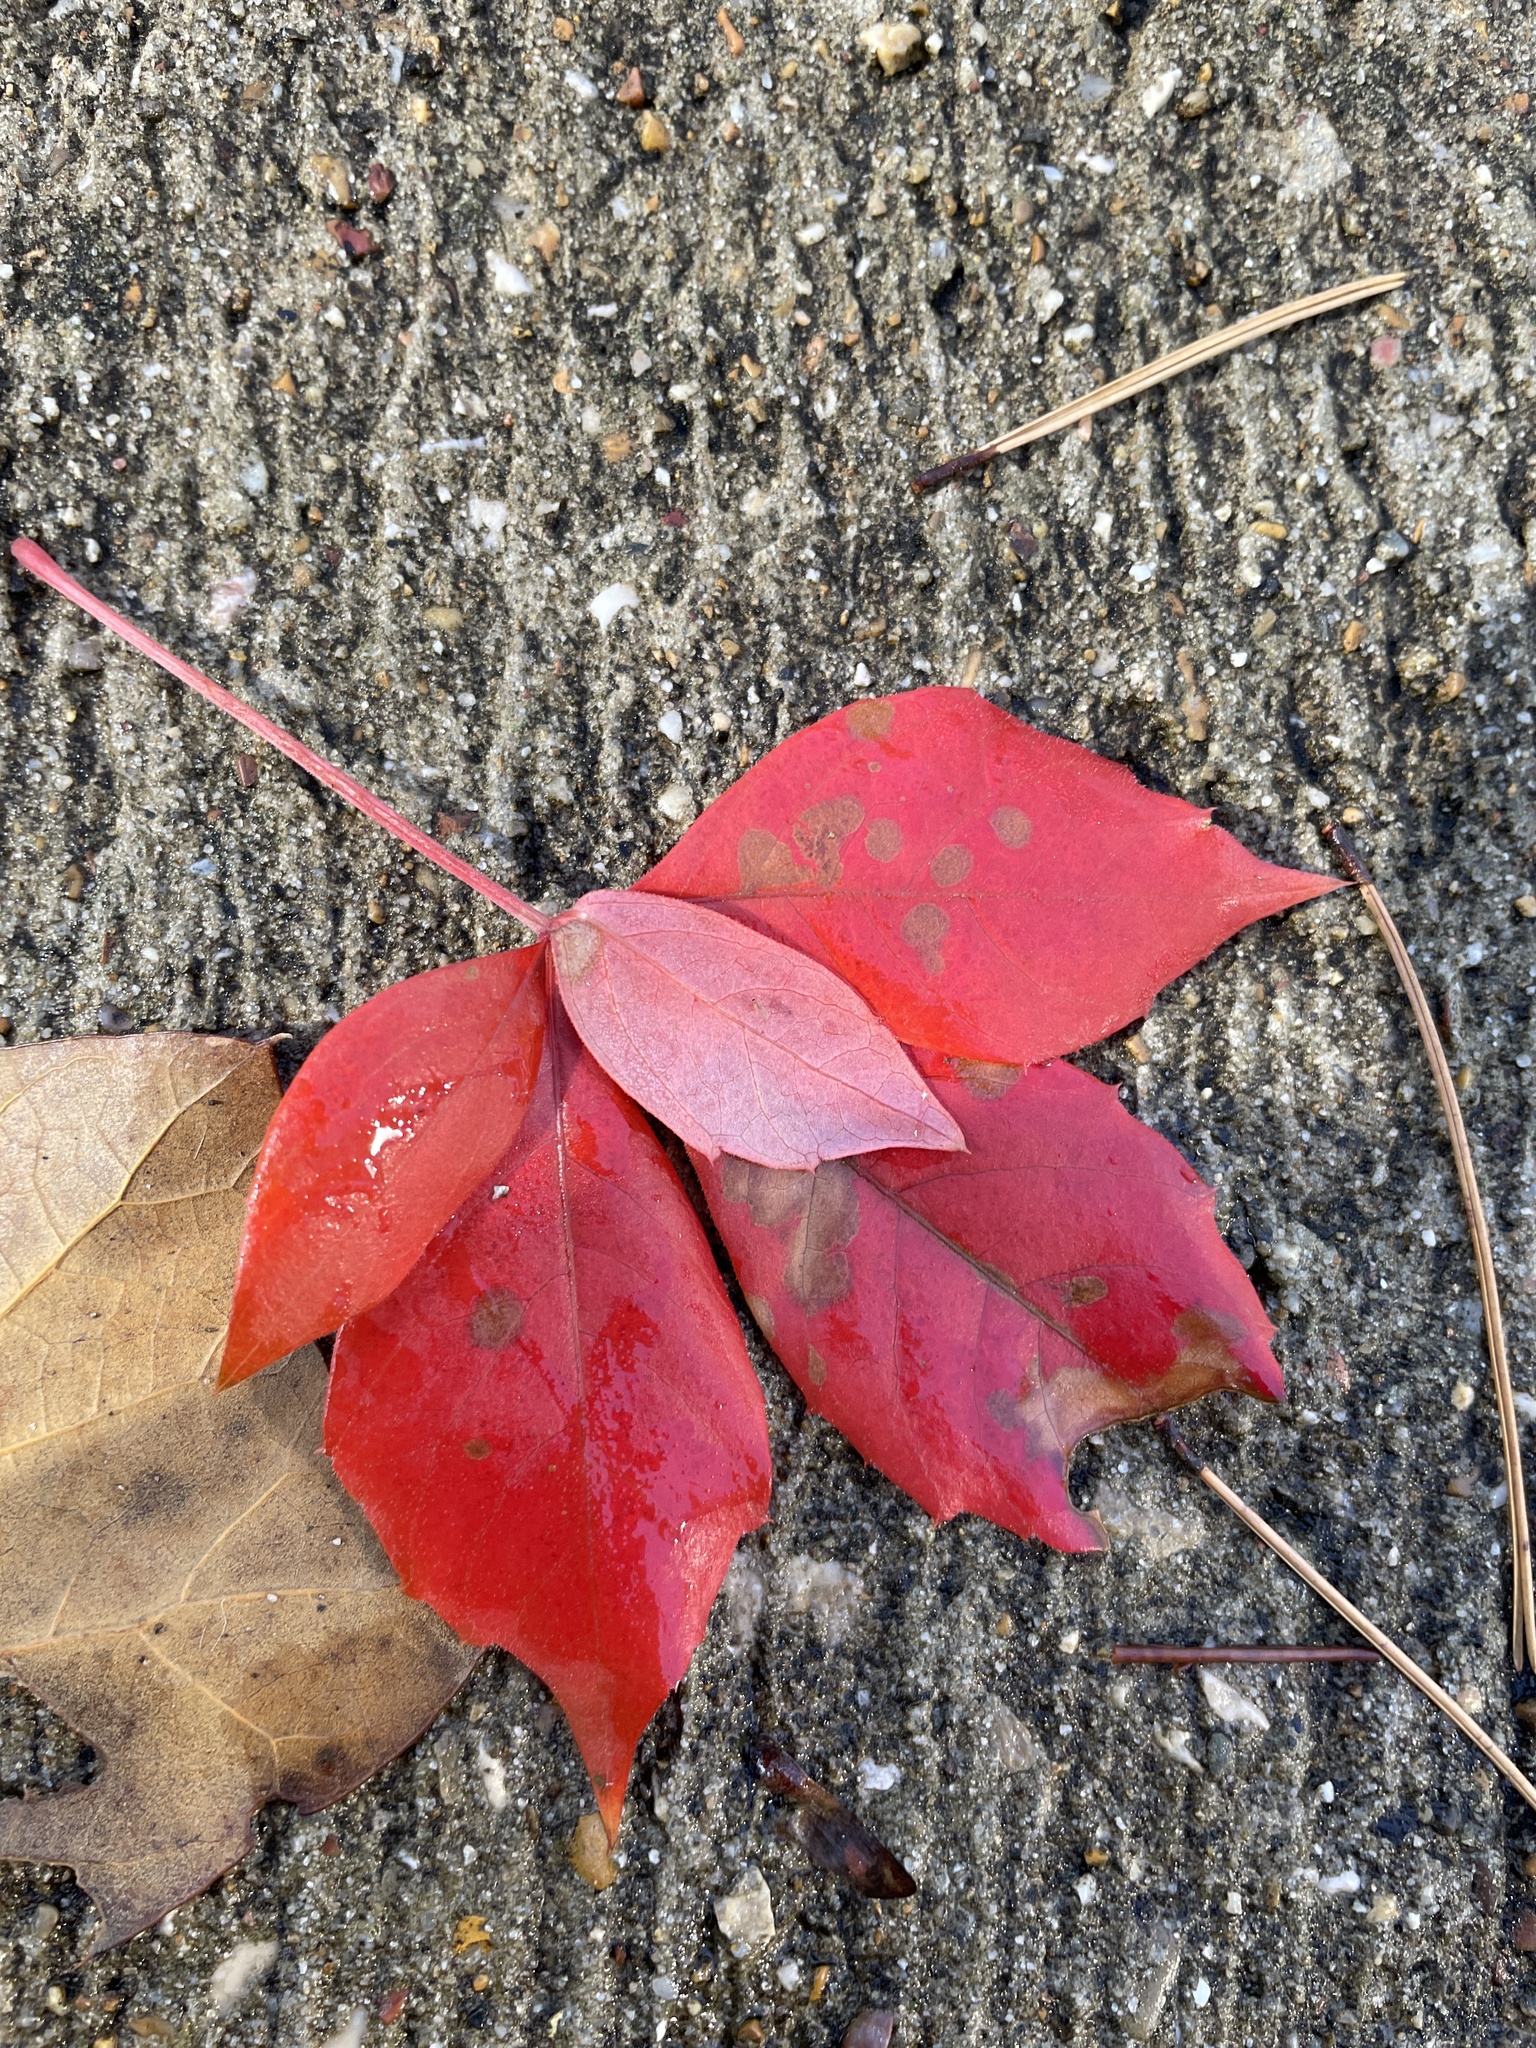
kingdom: Plantae
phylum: Tracheophyta
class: Magnoliopsida
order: Vitales
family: Vitaceae
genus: Parthenocissus
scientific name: Parthenocissus quinquefolia
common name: Virginia-creeper
